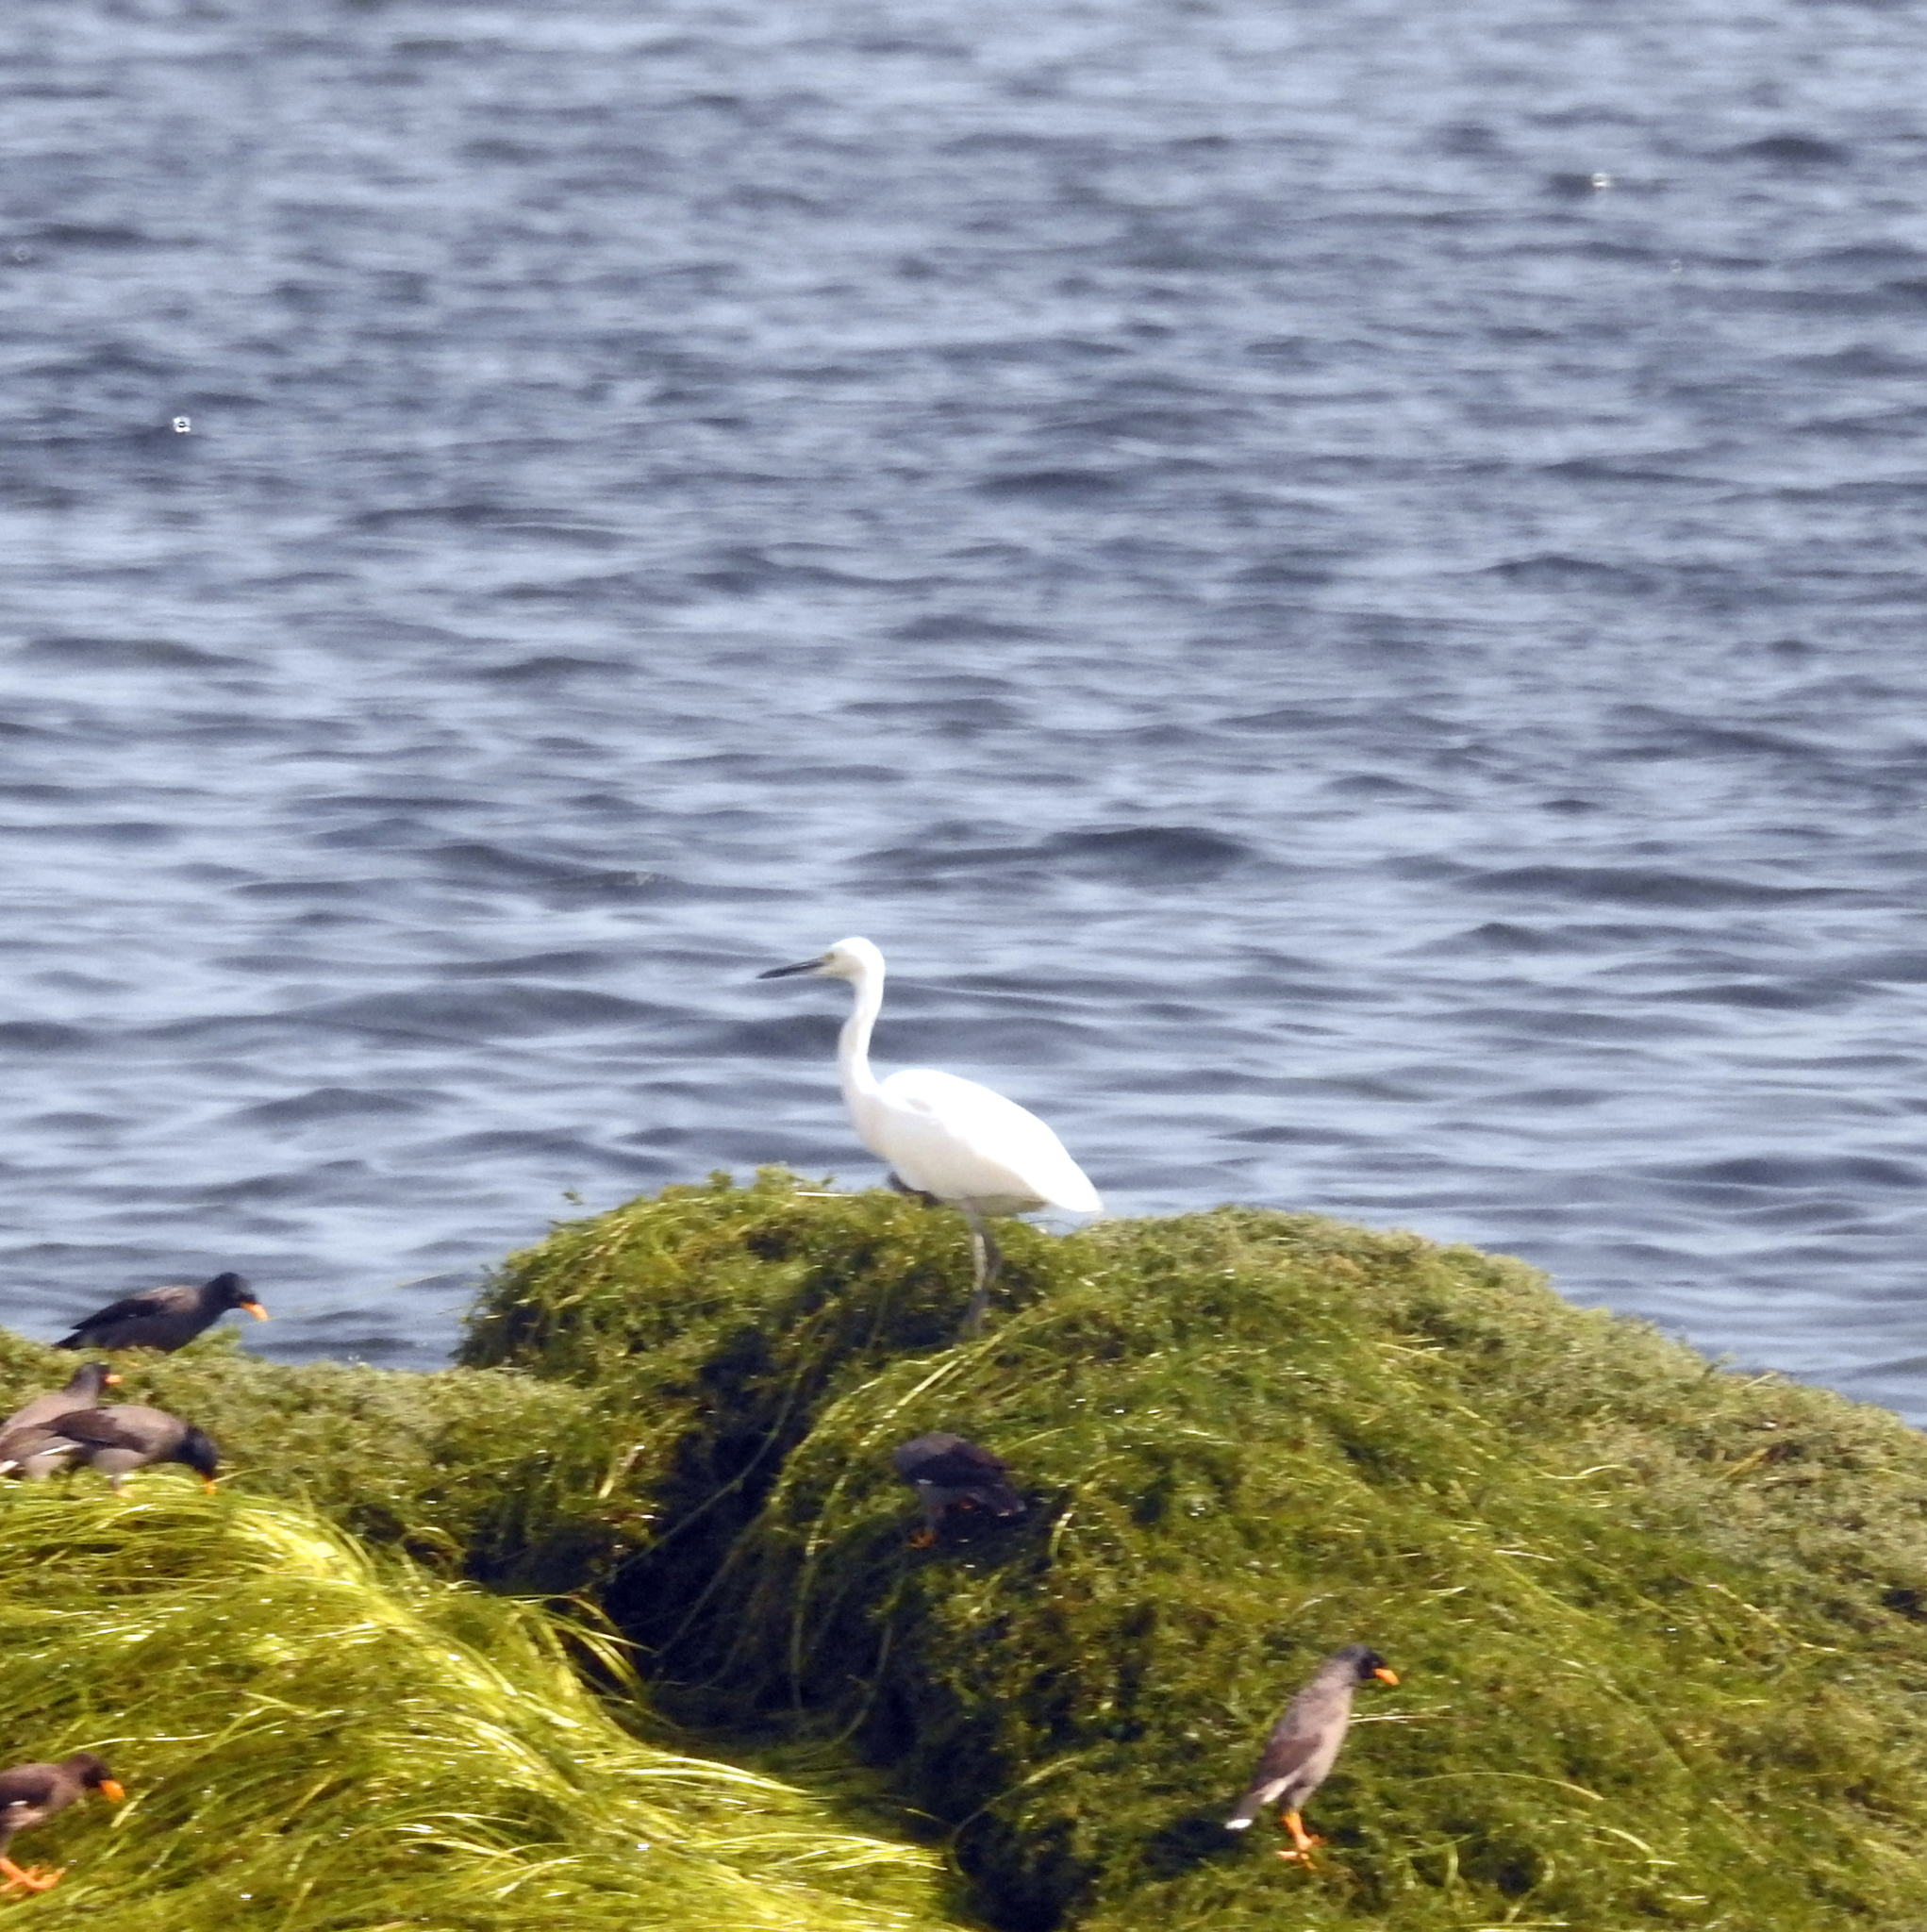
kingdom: Animalia
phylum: Chordata
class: Aves
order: Pelecaniformes
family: Ardeidae
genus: Egretta
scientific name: Egretta garzetta
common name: Little egret
